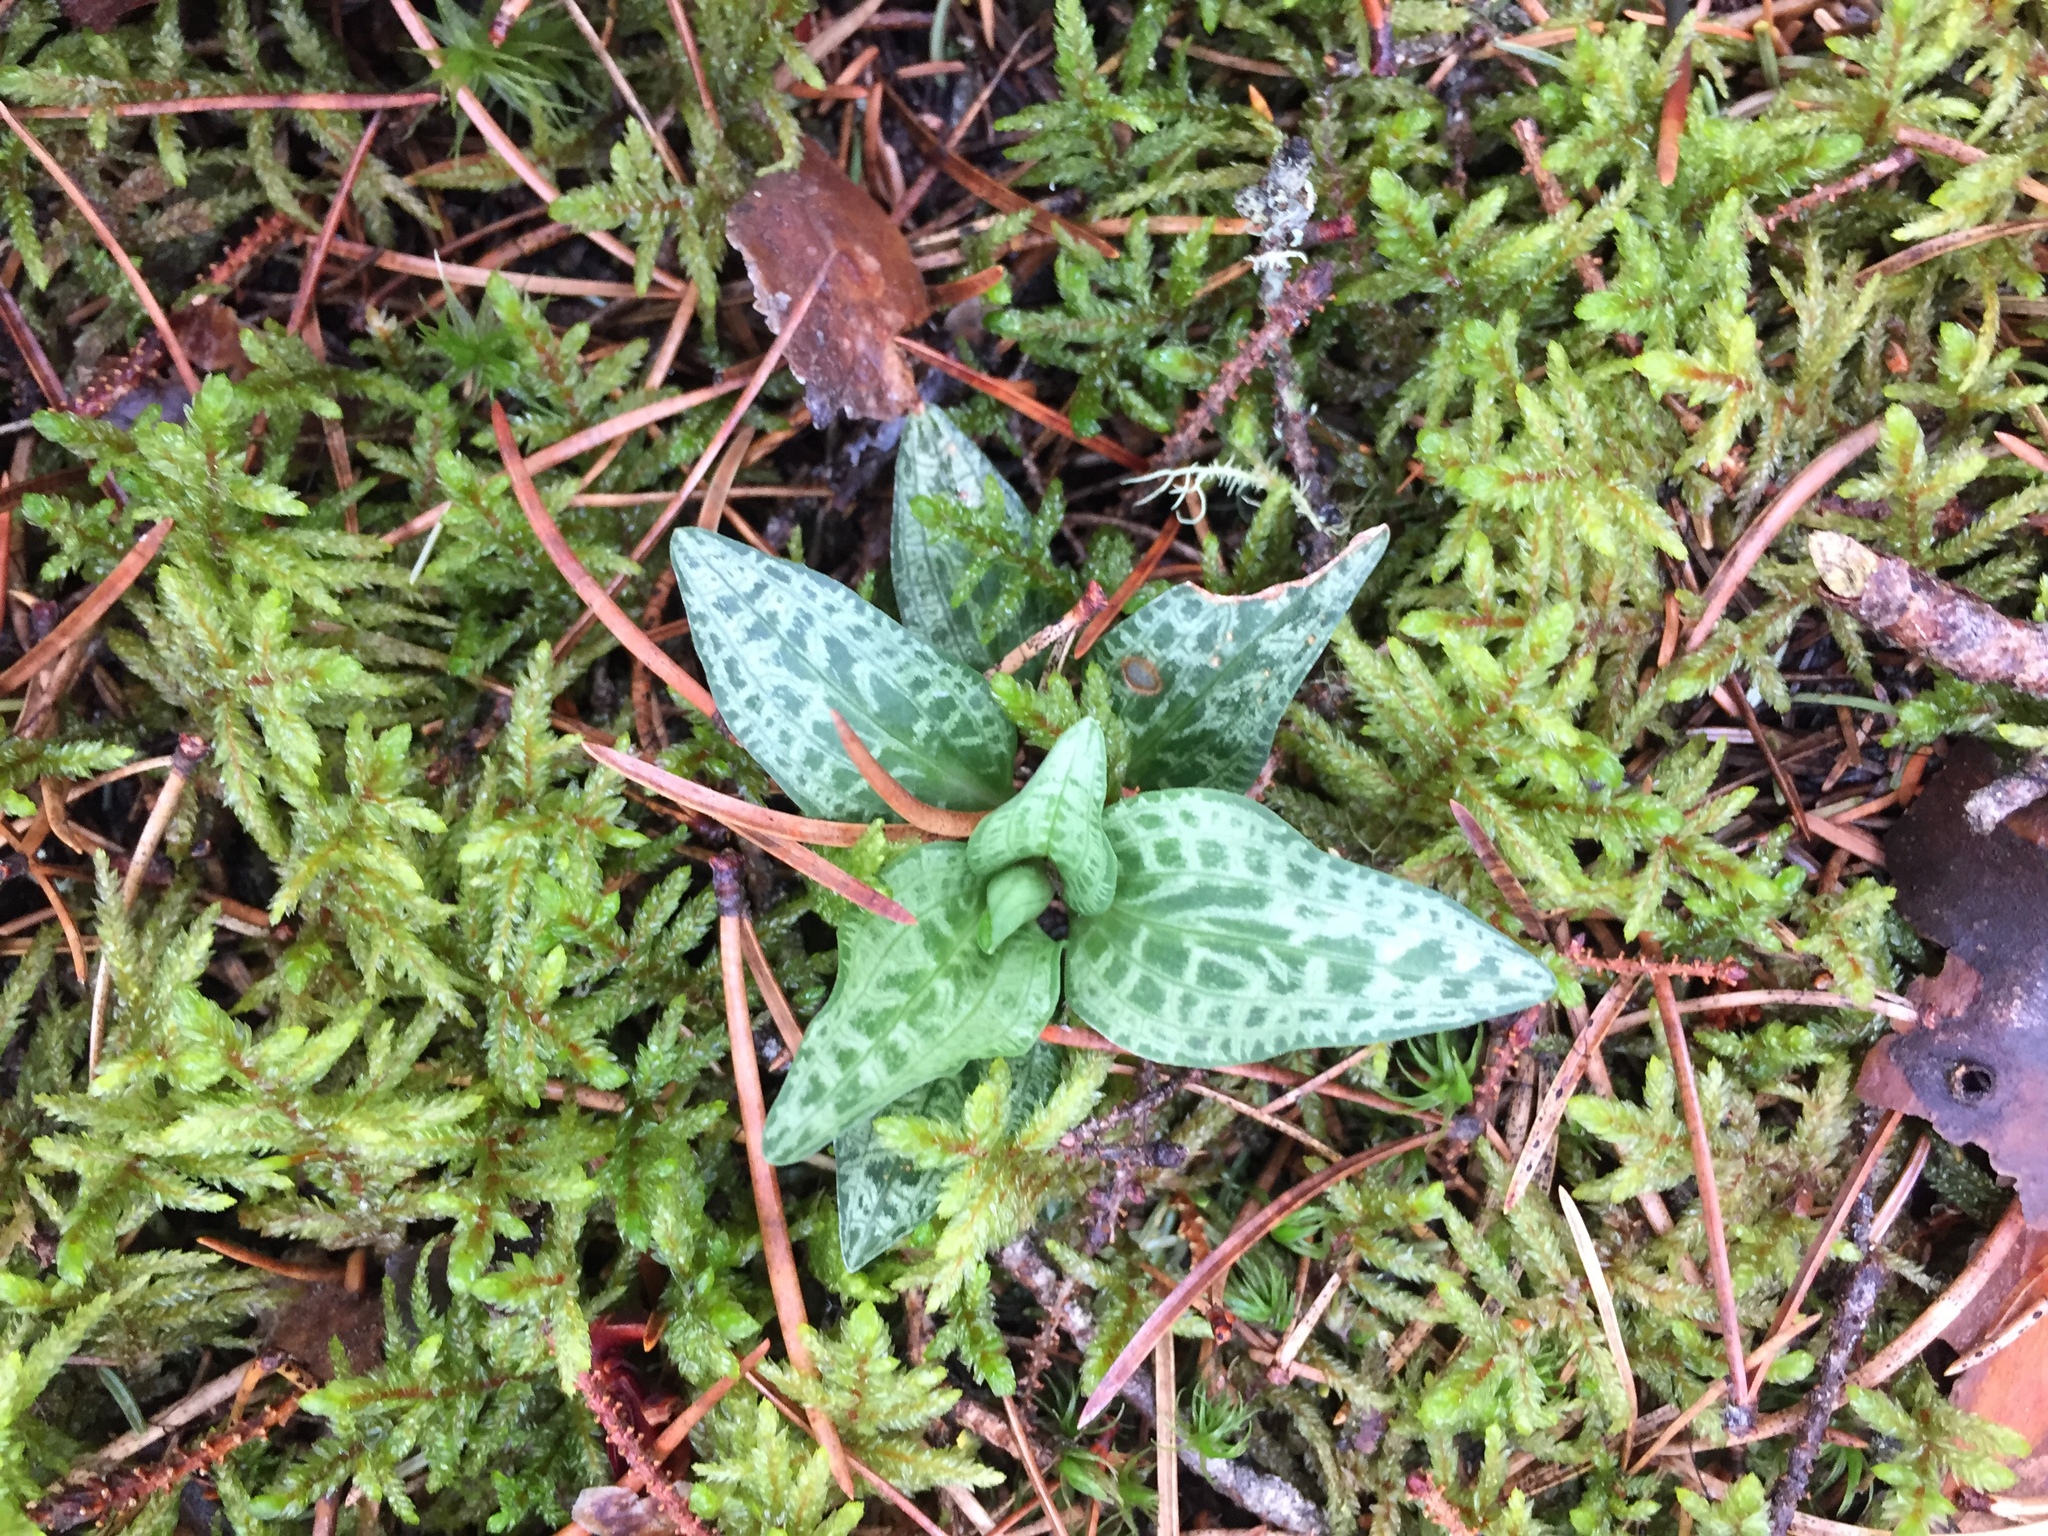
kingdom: Plantae
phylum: Tracheophyta
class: Liliopsida
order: Asparagales
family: Orchidaceae
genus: Goodyera
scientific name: Goodyera tesselata
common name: Checkered rattlesnake-plantain
